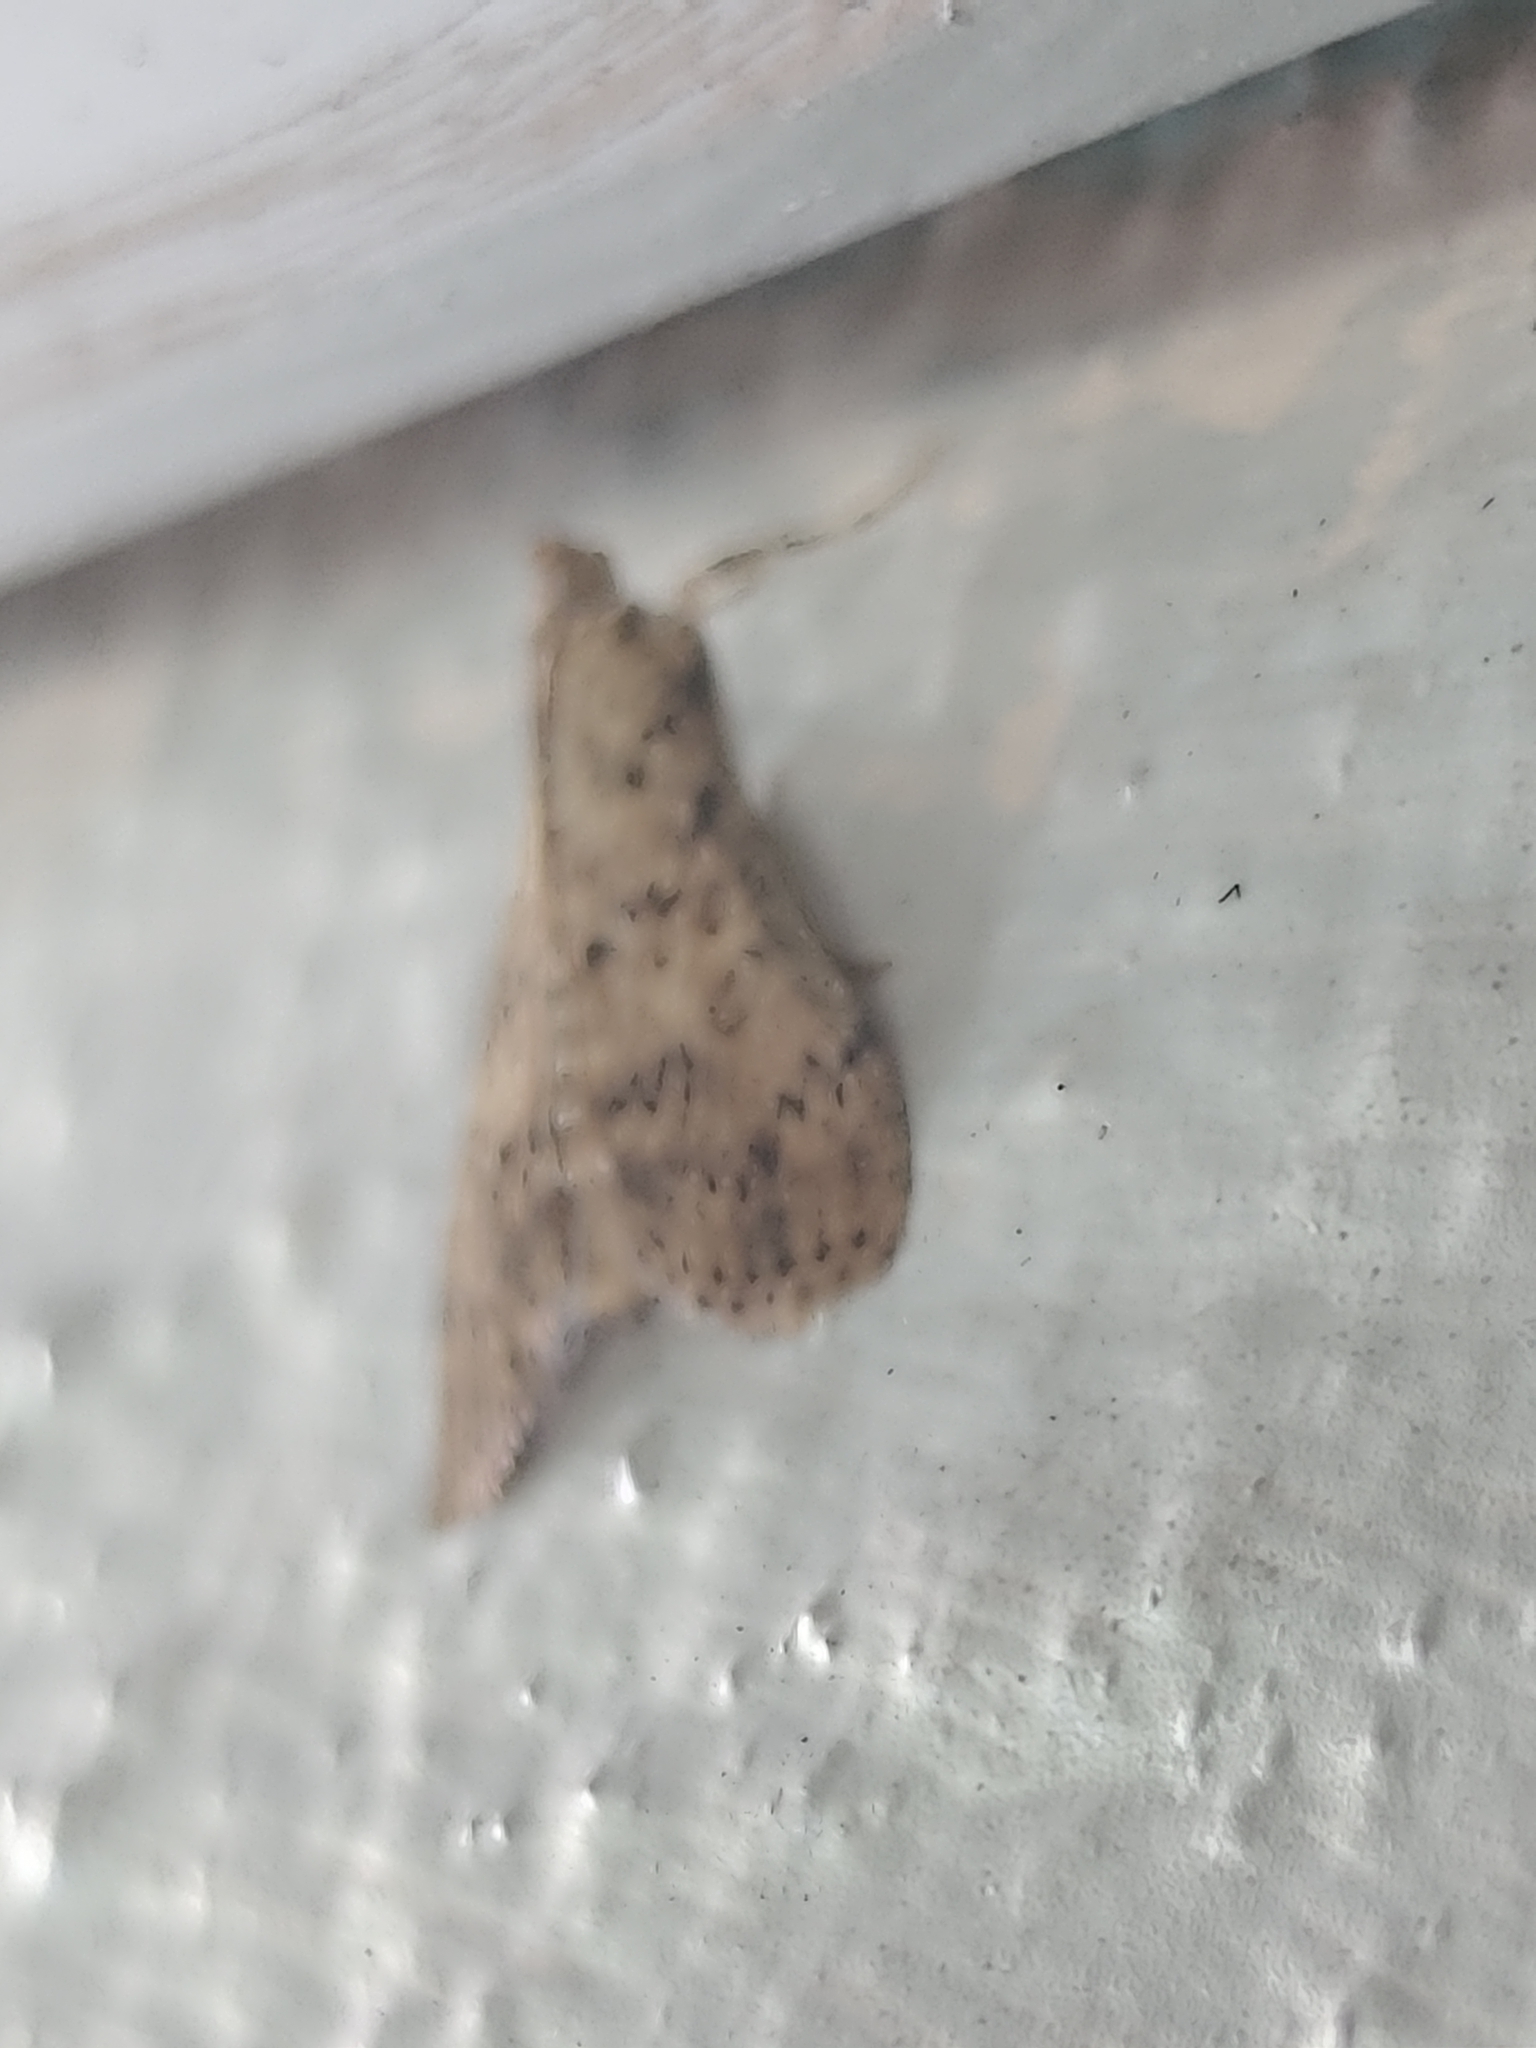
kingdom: Animalia
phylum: Arthropoda
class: Insecta
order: Lepidoptera
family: Crambidae
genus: Asciodes
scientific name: Asciodes gordialis
